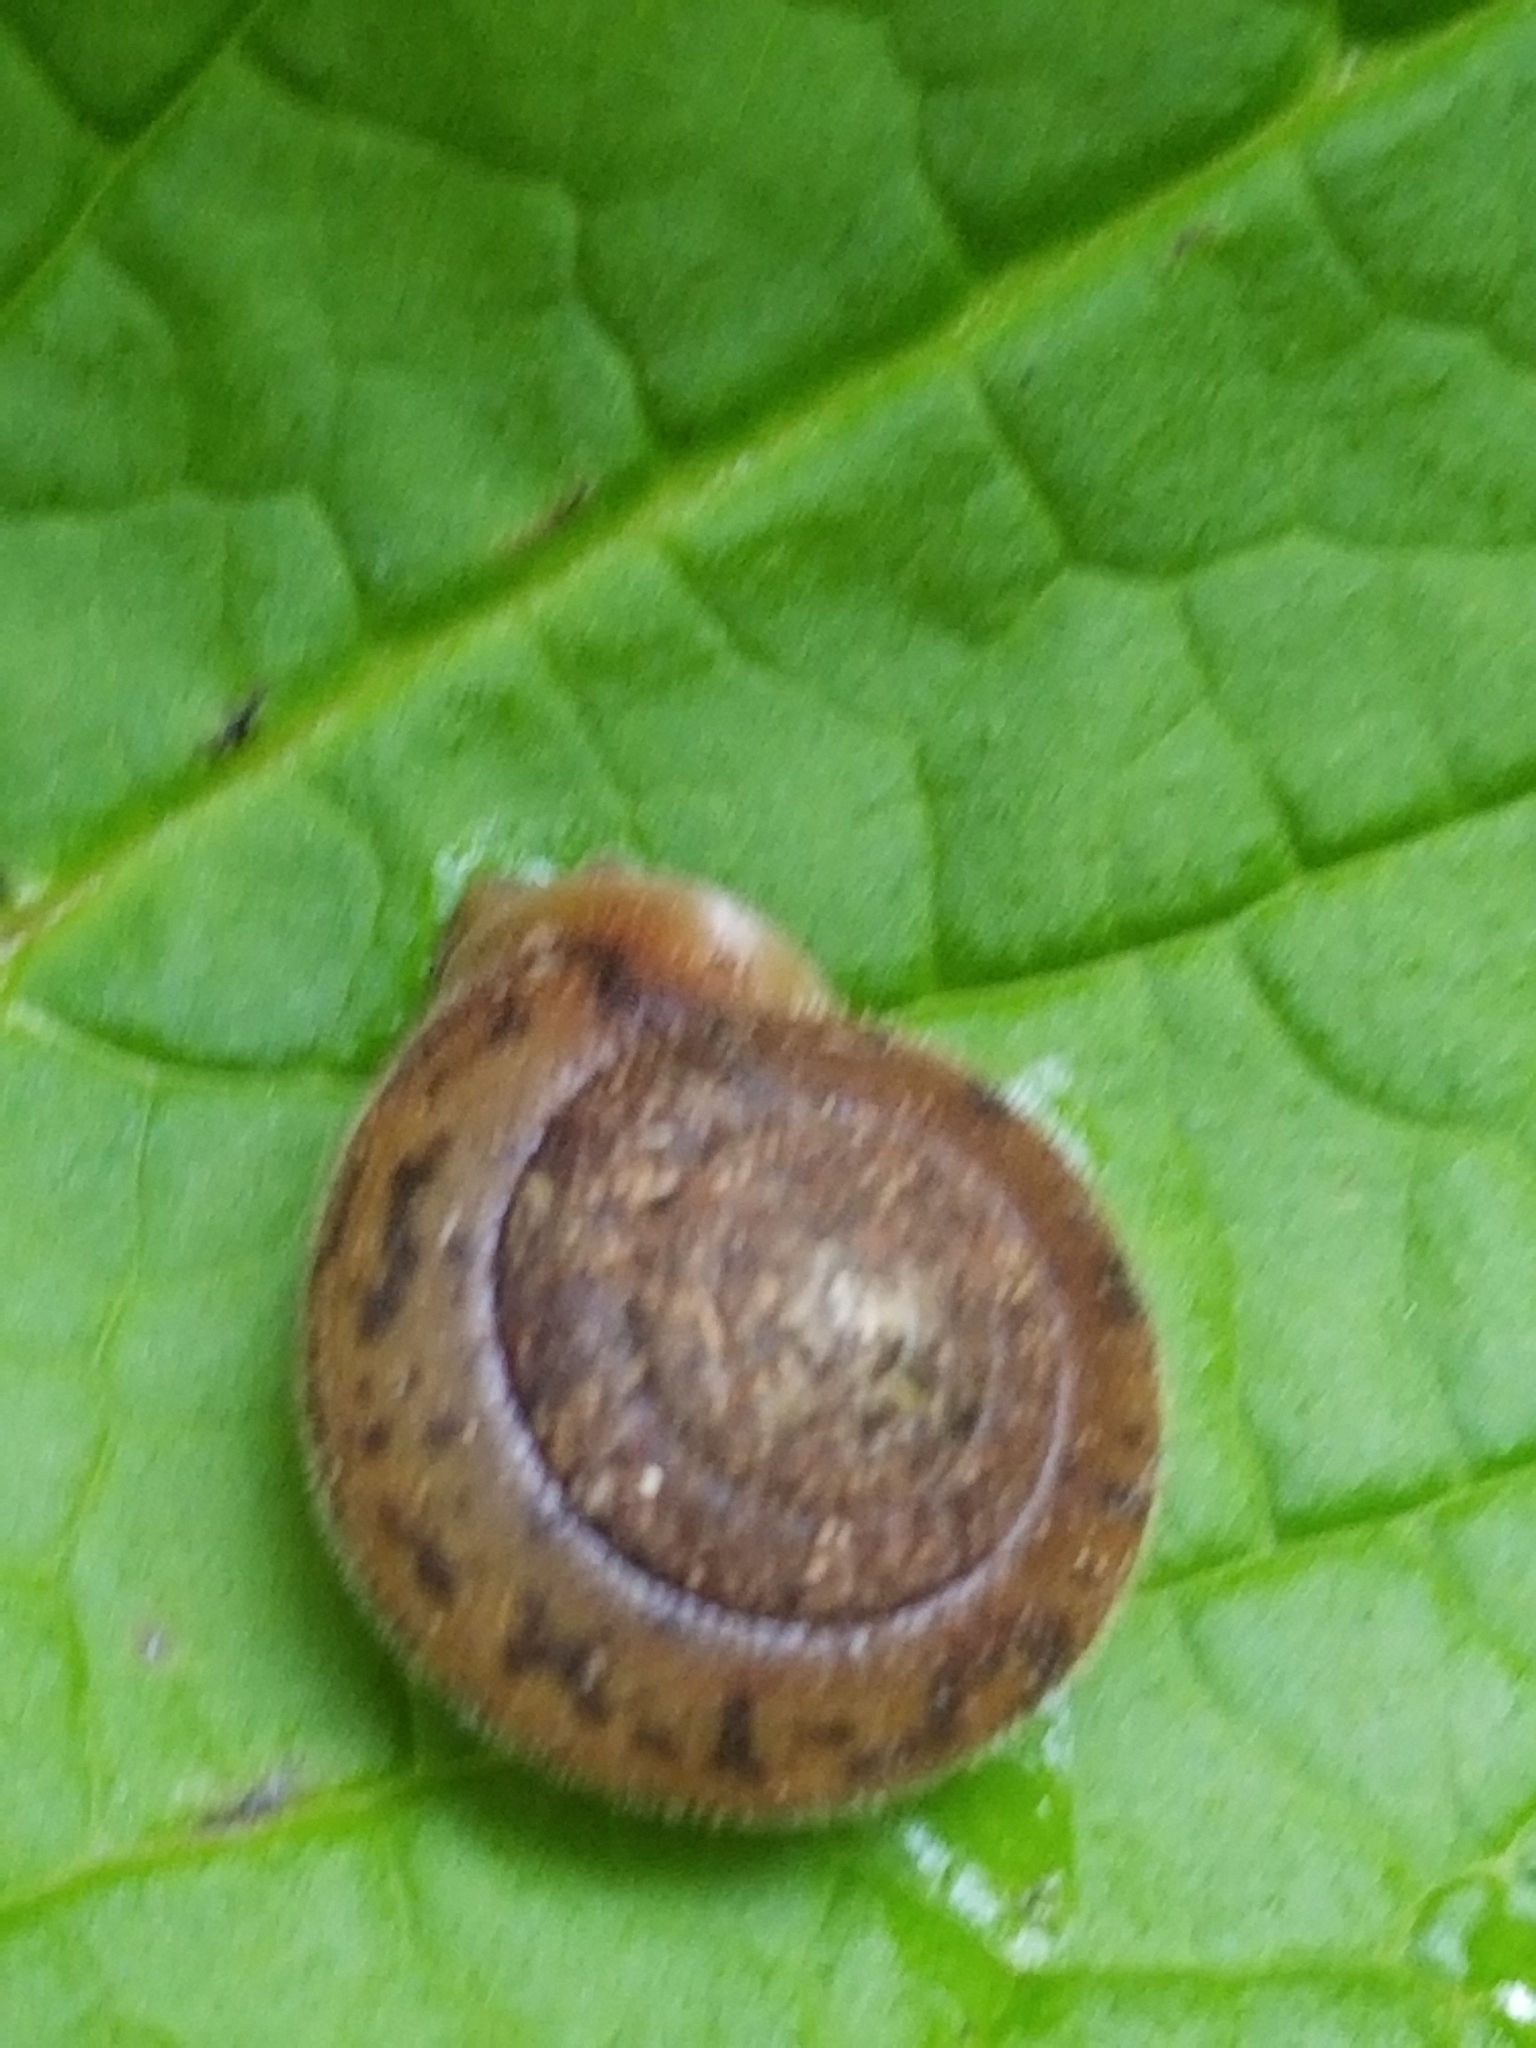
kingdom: Animalia
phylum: Mollusca
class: Gastropoda
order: Stylommatophora
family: Polygyridae
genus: Vespericola
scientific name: Vespericola columbianus
